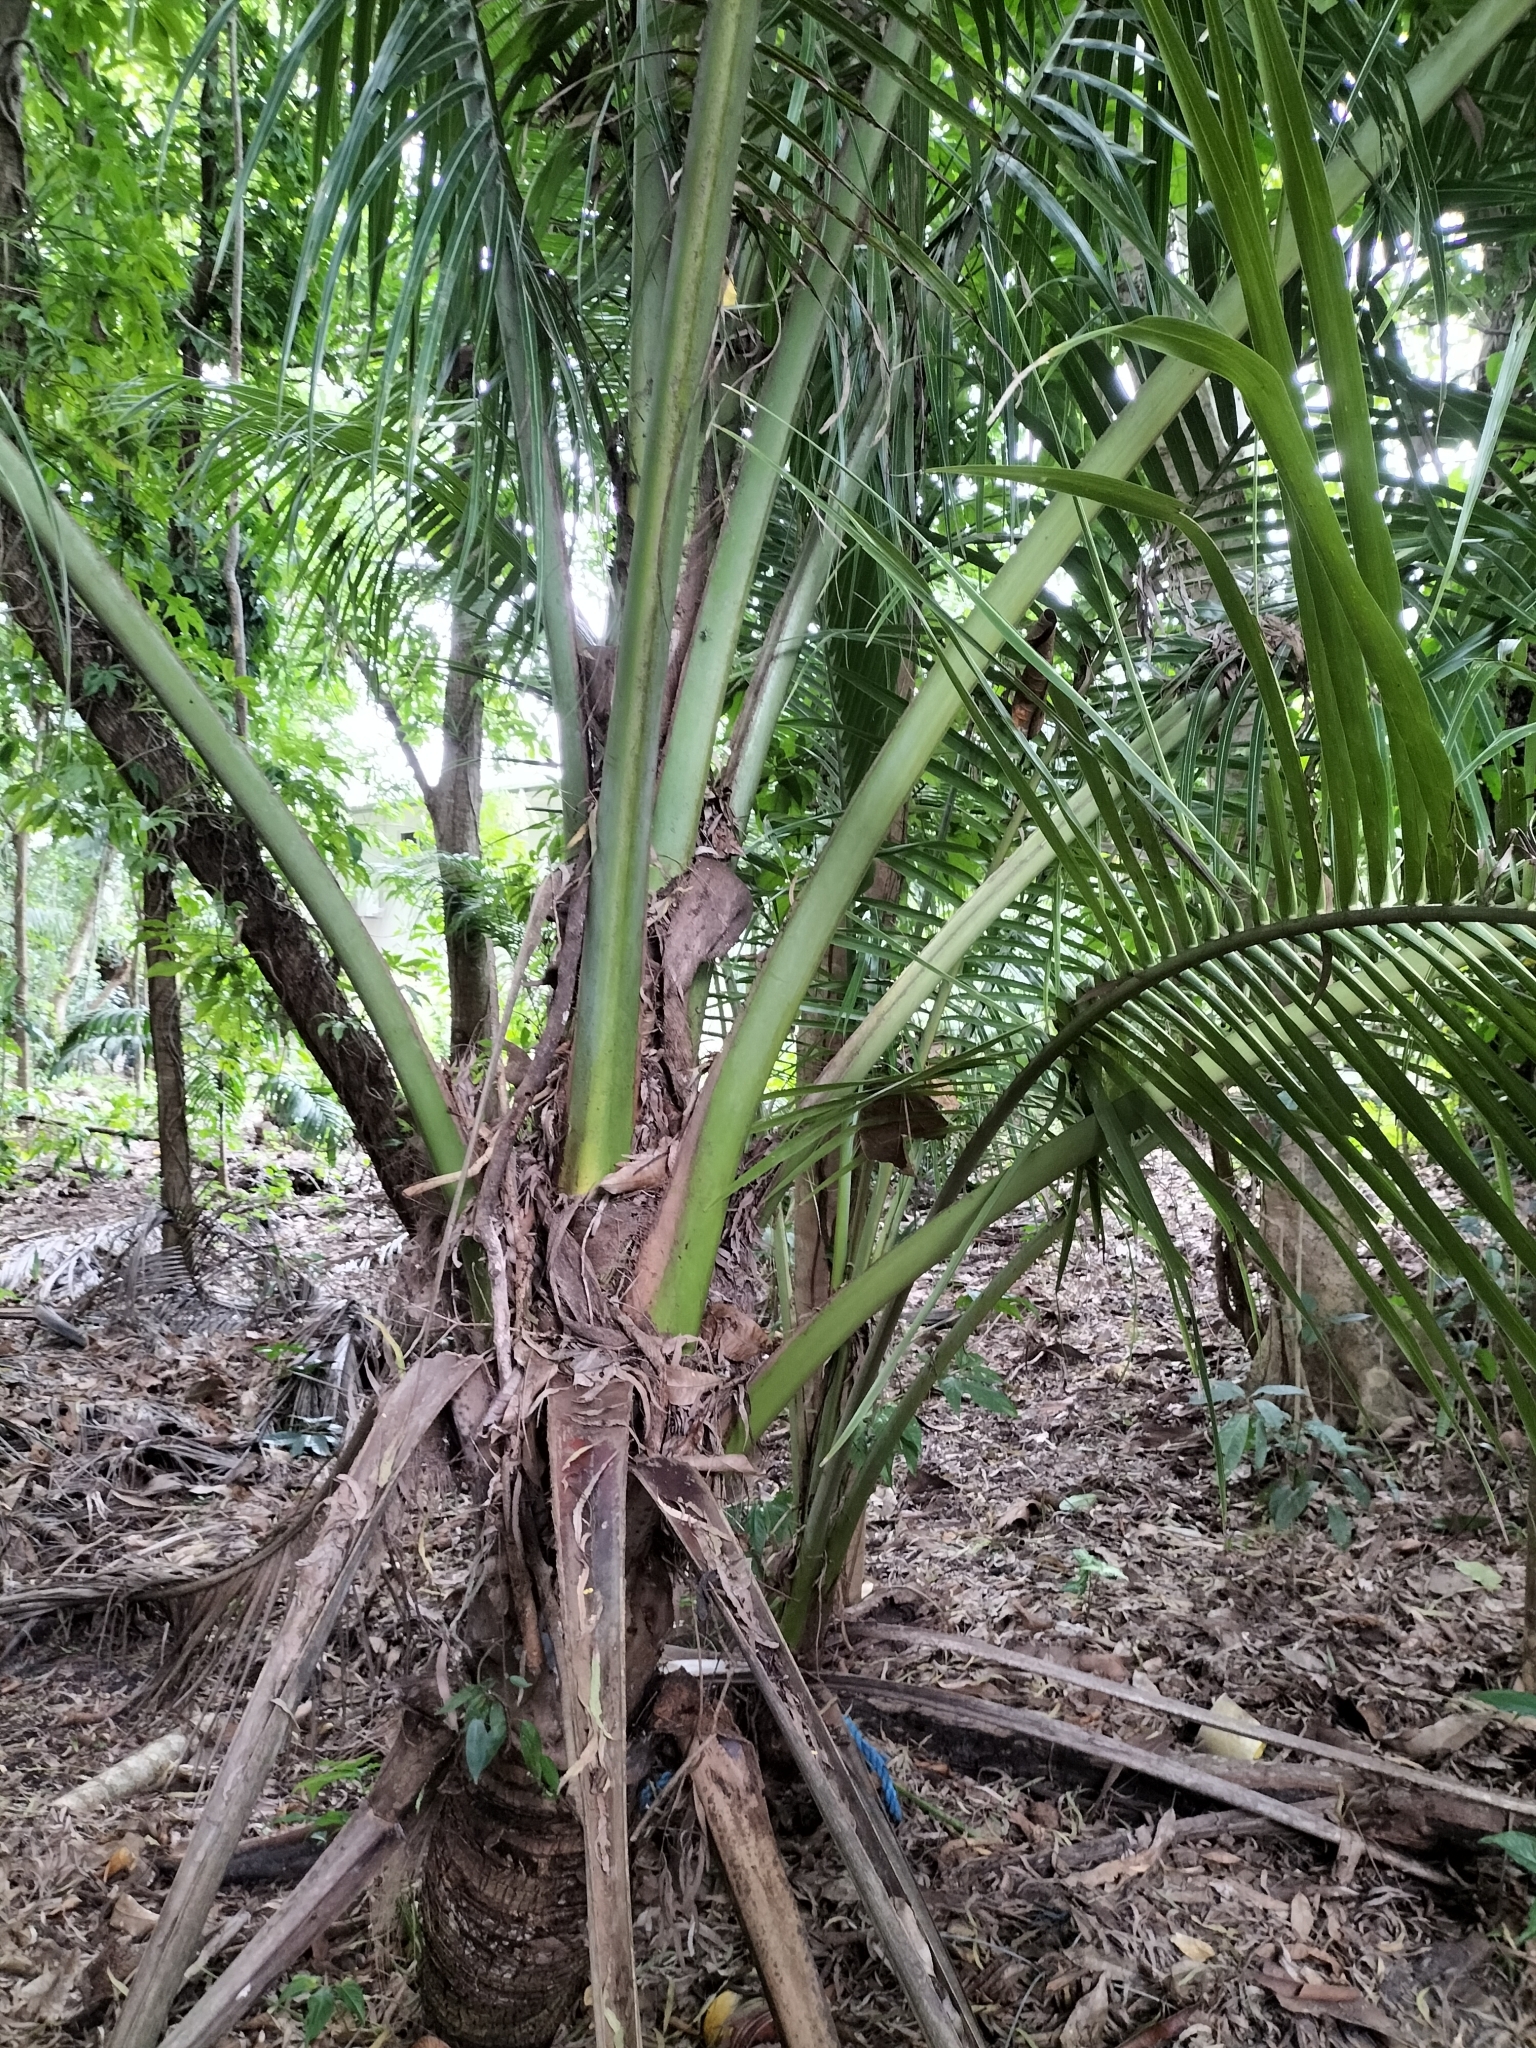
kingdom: Plantae
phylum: Tracheophyta
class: Liliopsida
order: Arecales
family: Arecaceae
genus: Cocos
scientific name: Cocos nucifera
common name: Coconut palm
